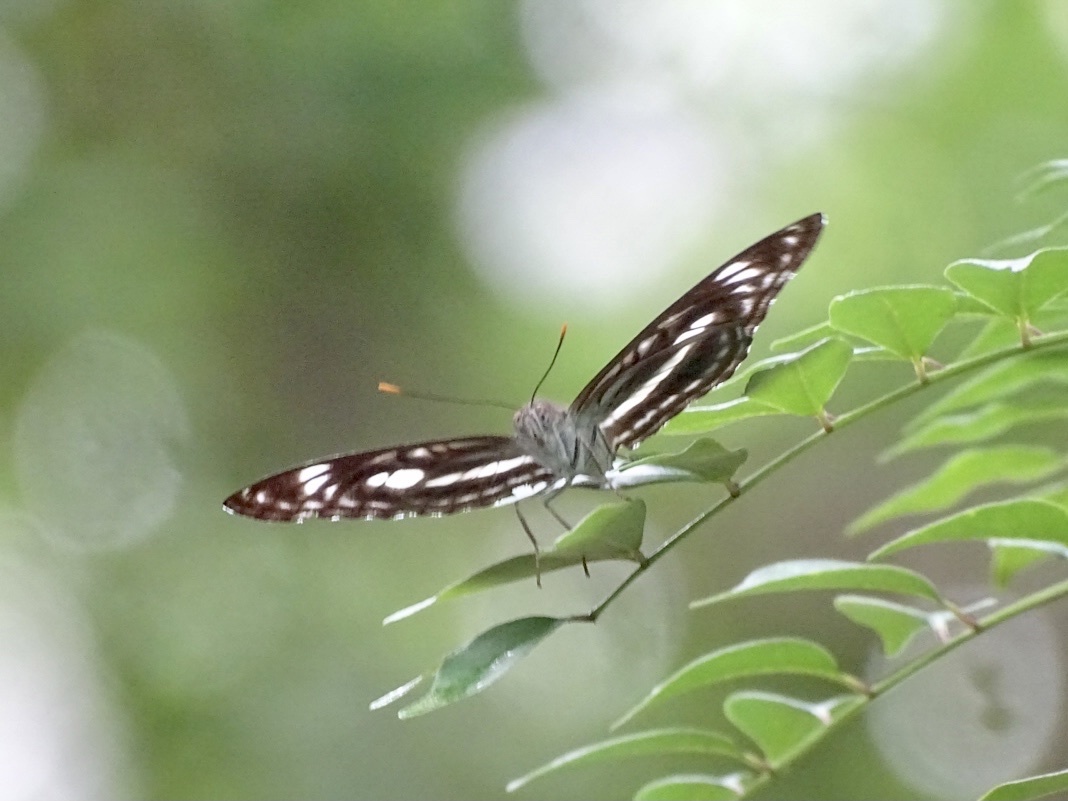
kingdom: Animalia
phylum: Arthropoda
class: Insecta
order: Lepidoptera
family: Nymphalidae
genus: Parathyma
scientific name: Parathyma selenophora
